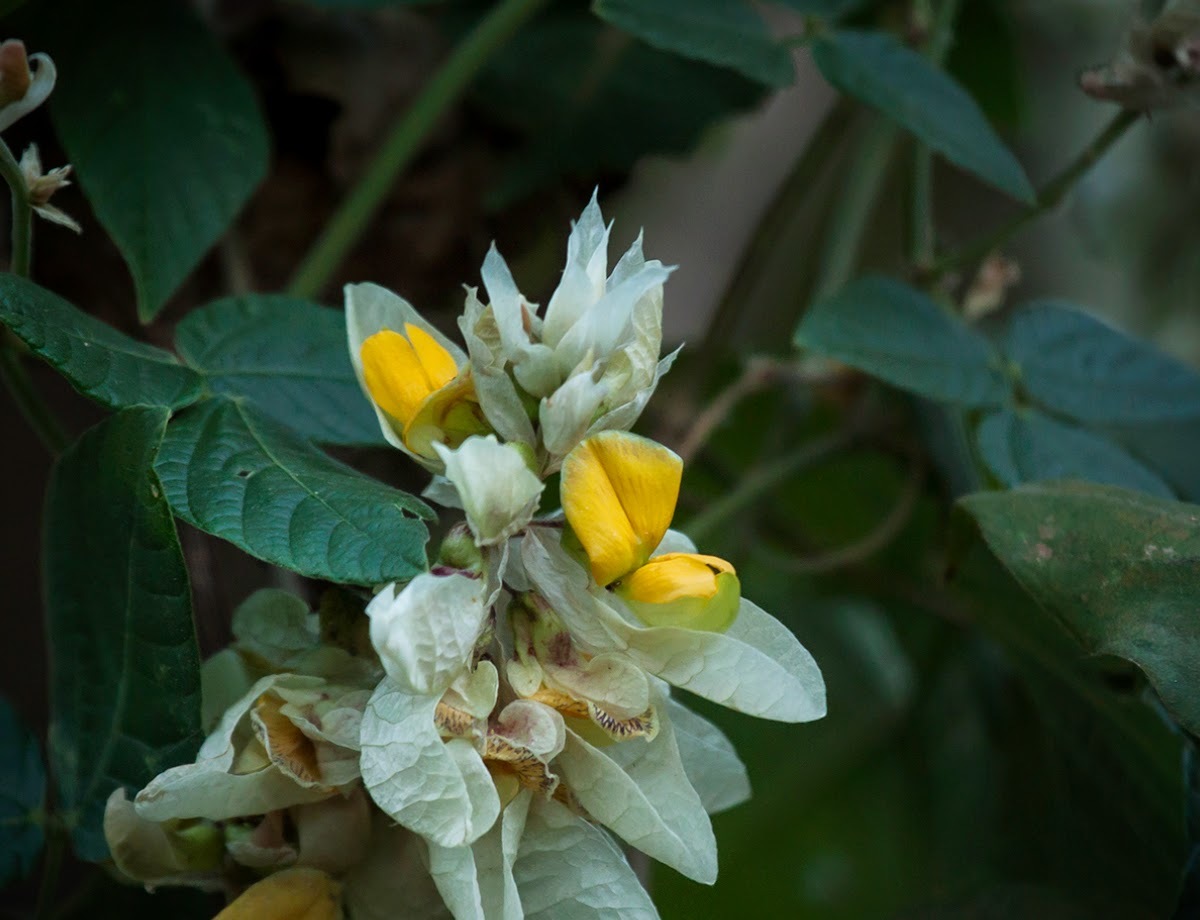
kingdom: Plantae
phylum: Tracheophyta
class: Magnoliopsida
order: Fabales
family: Fabaceae
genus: Paracalyx
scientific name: Paracalyx scariosus
